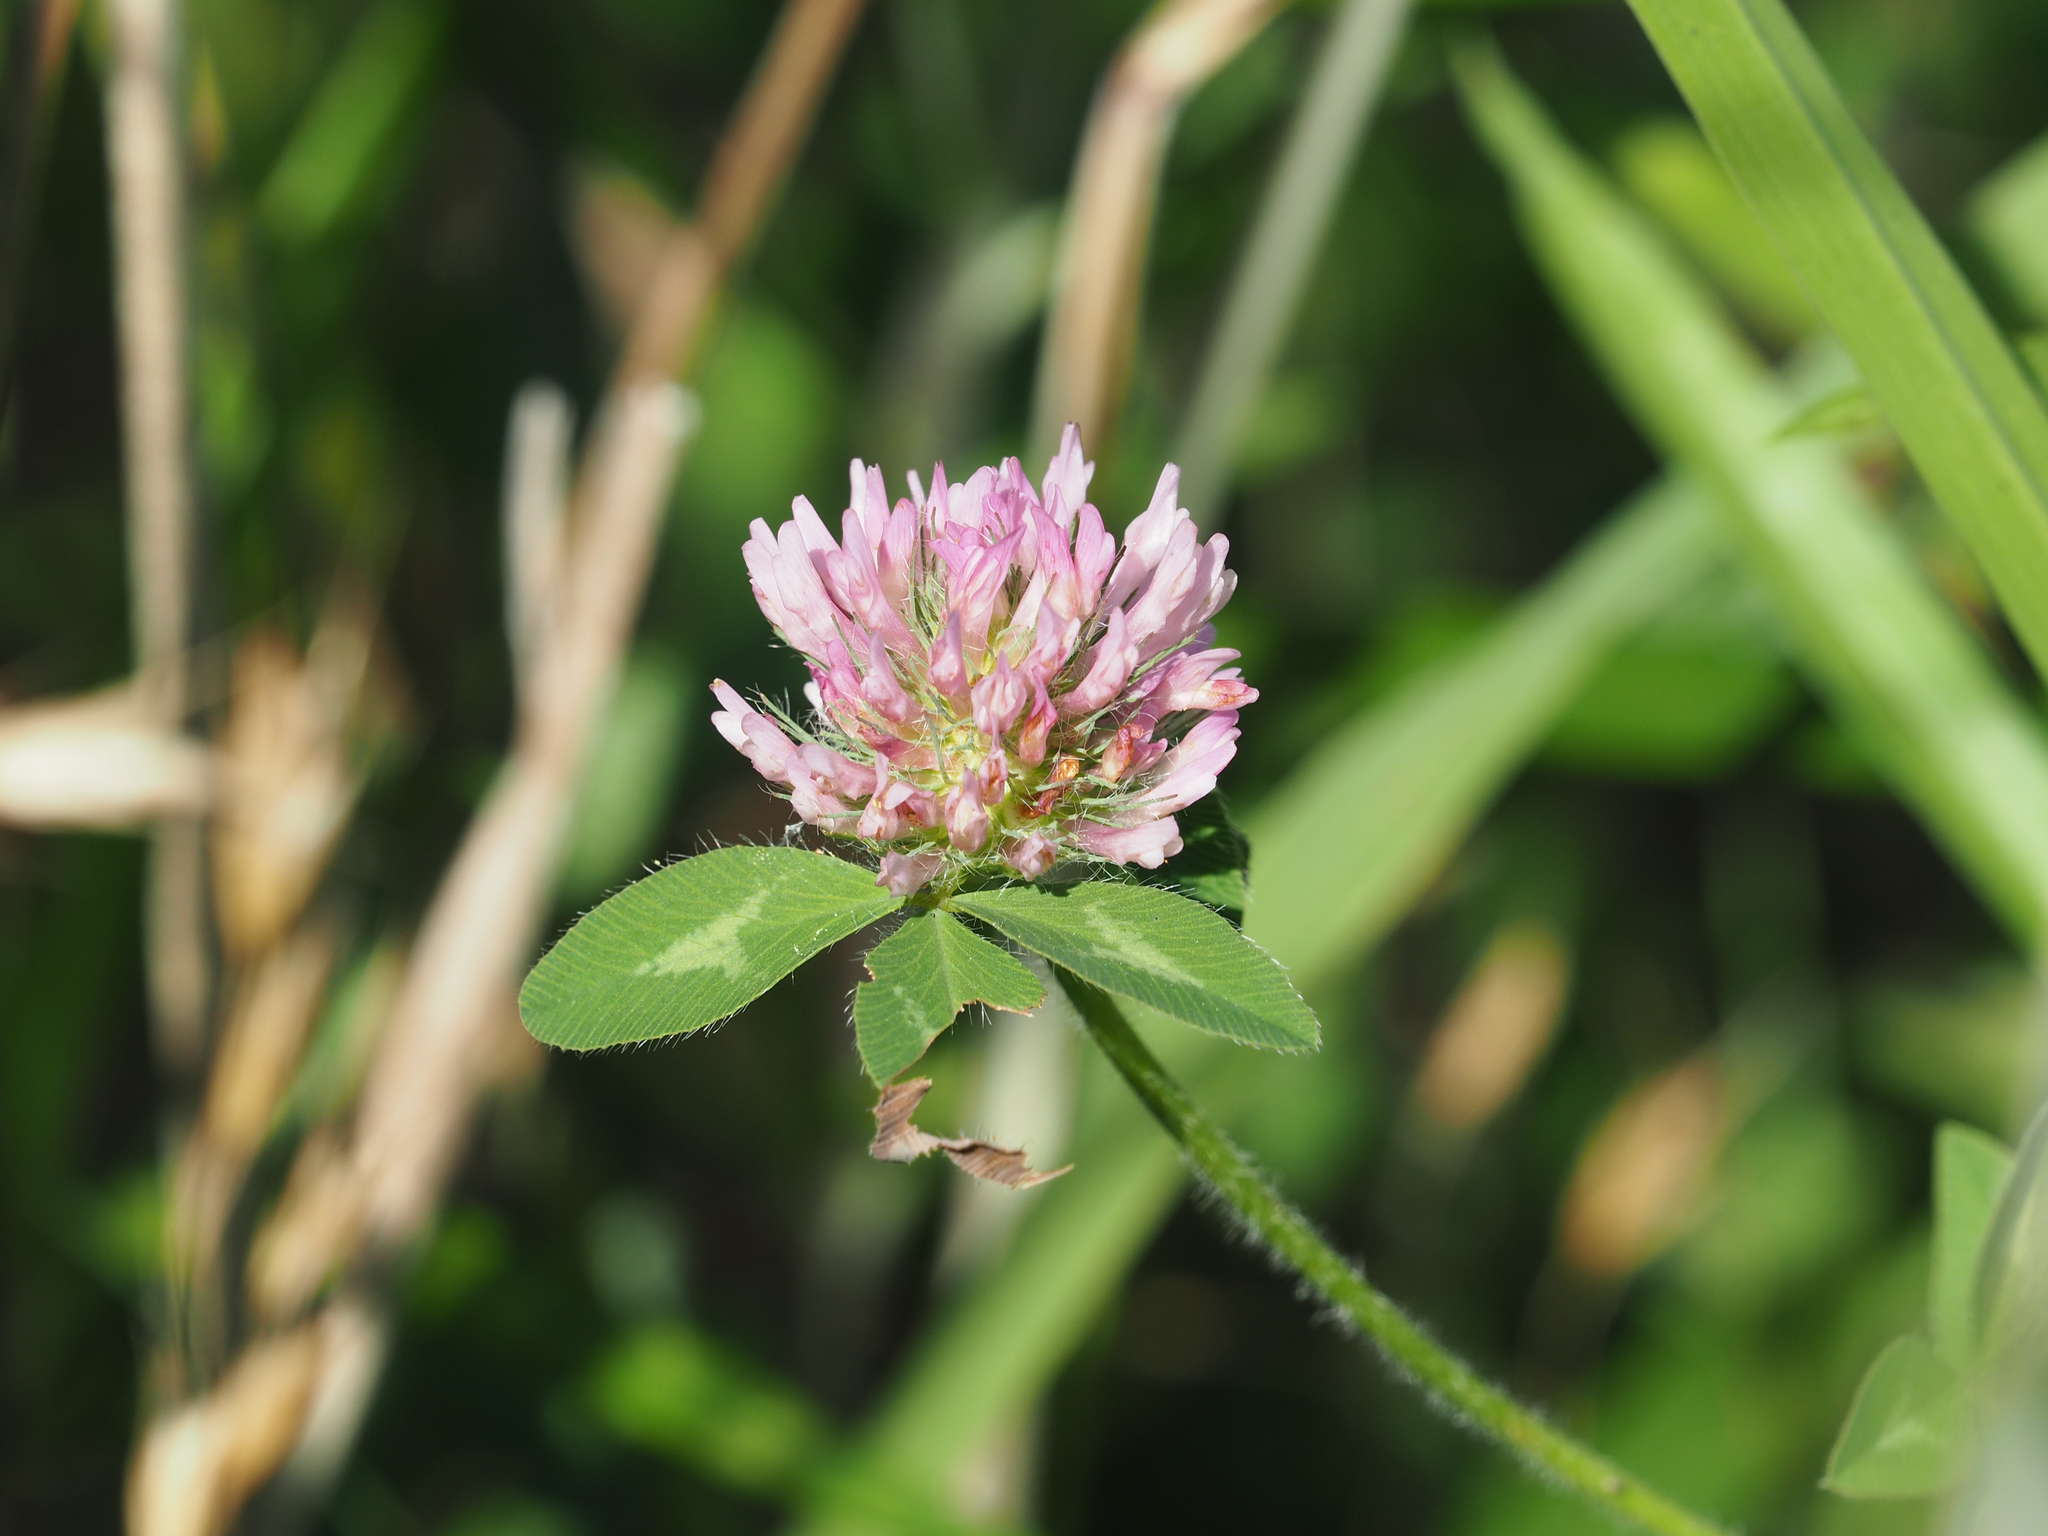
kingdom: Plantae
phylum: Tracheophyta
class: Magnoliopsida
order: Fabales
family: Fabaceae
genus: Trifolium
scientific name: Trifolium pratense
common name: Red clover
